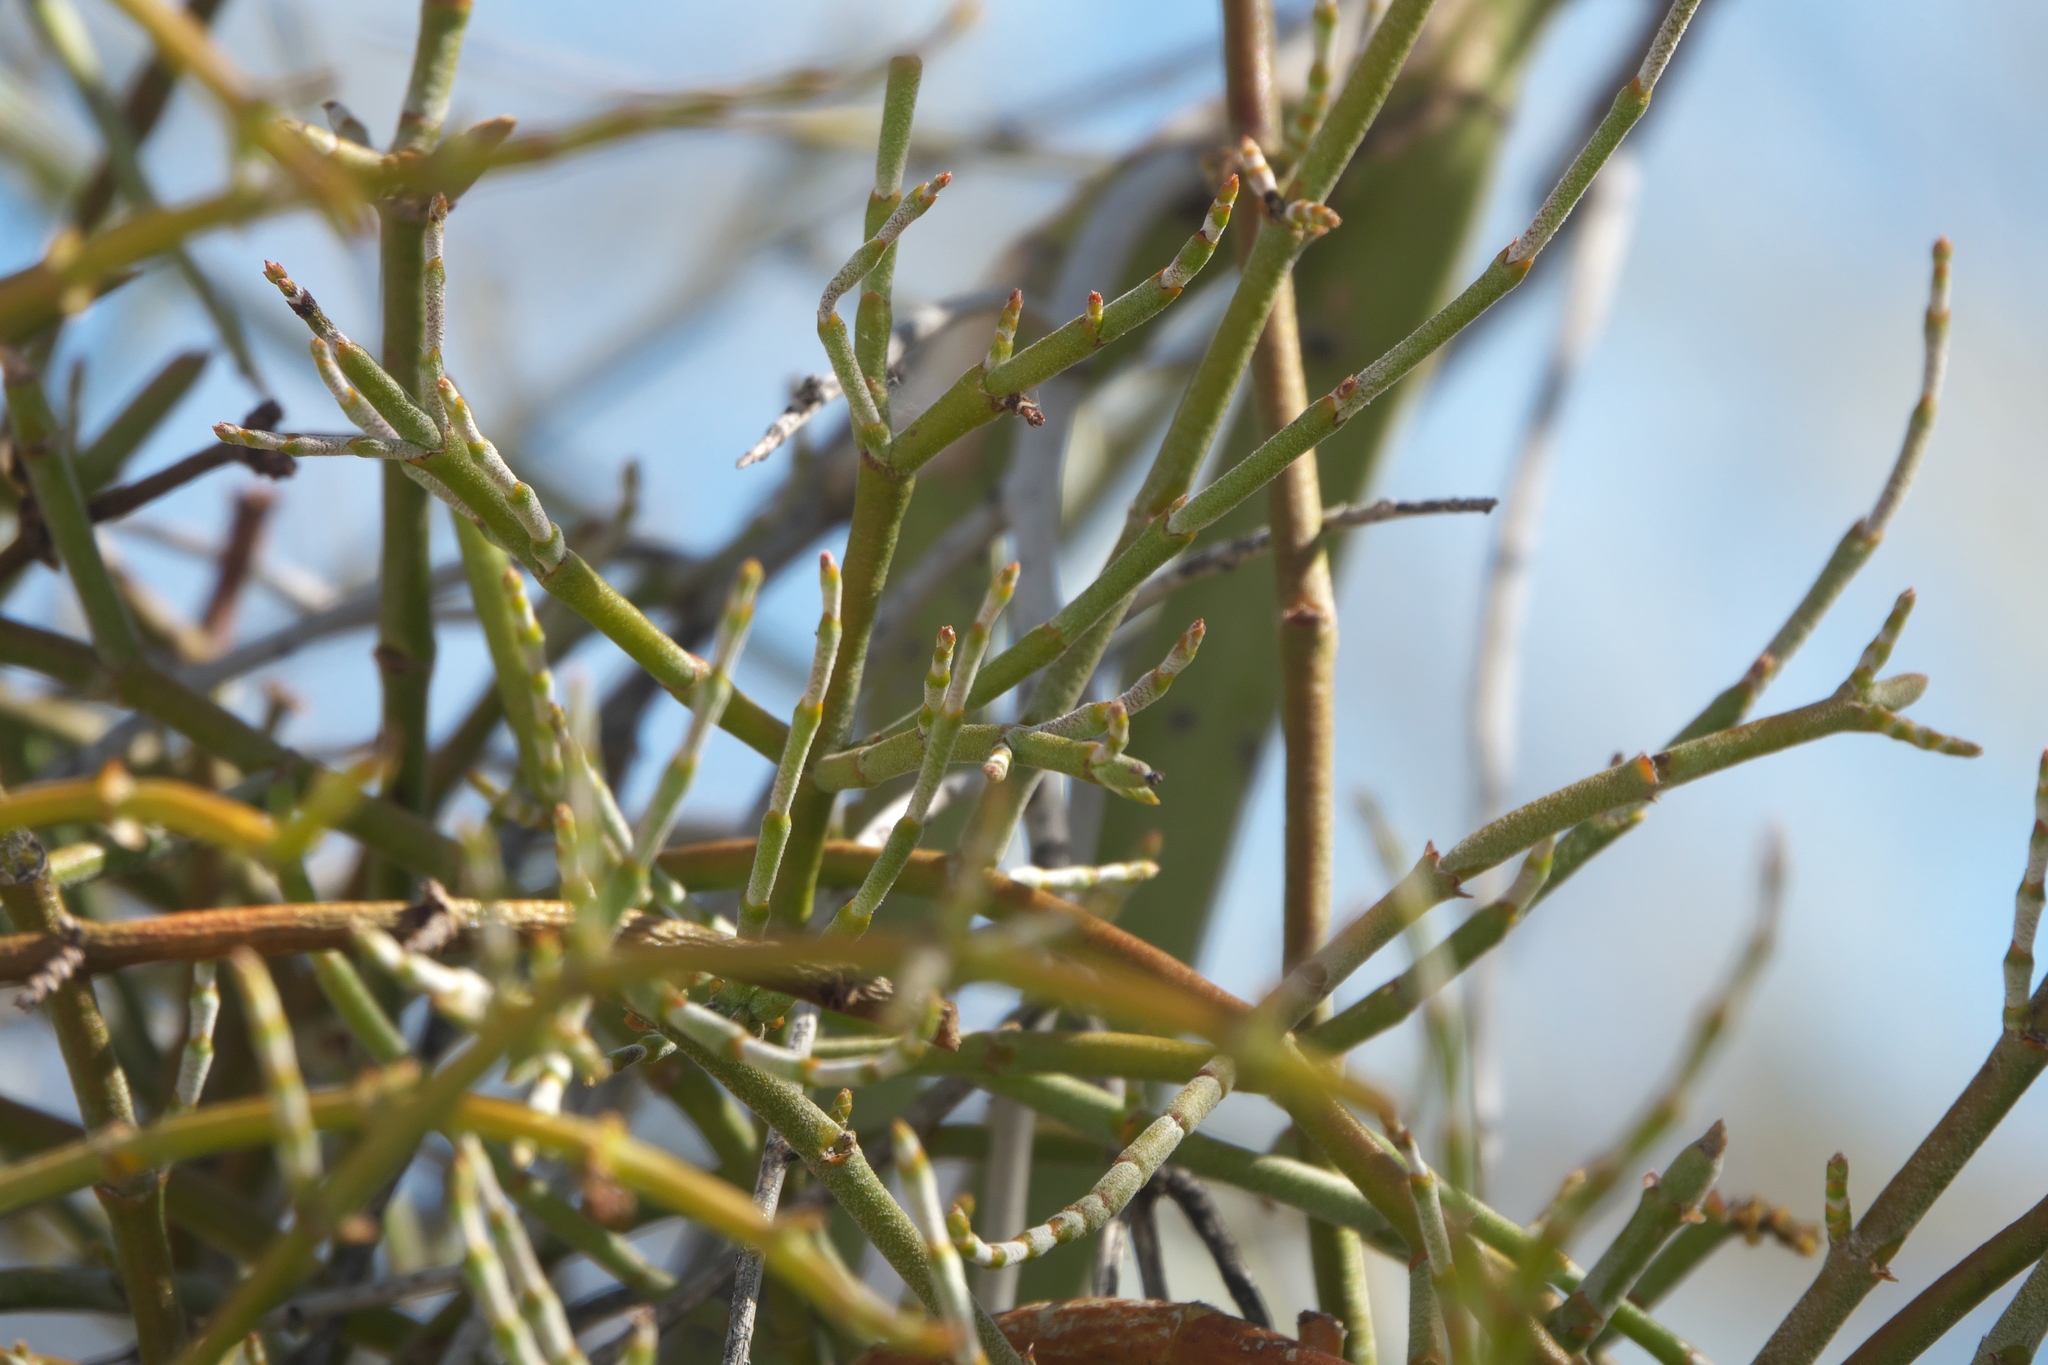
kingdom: Plantae
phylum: Tracheophyta
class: Magnoliopsida
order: Santalales
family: Viscaceae
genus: Phoradendron
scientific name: Phoradendron californicum
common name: Acacia mistletoe
